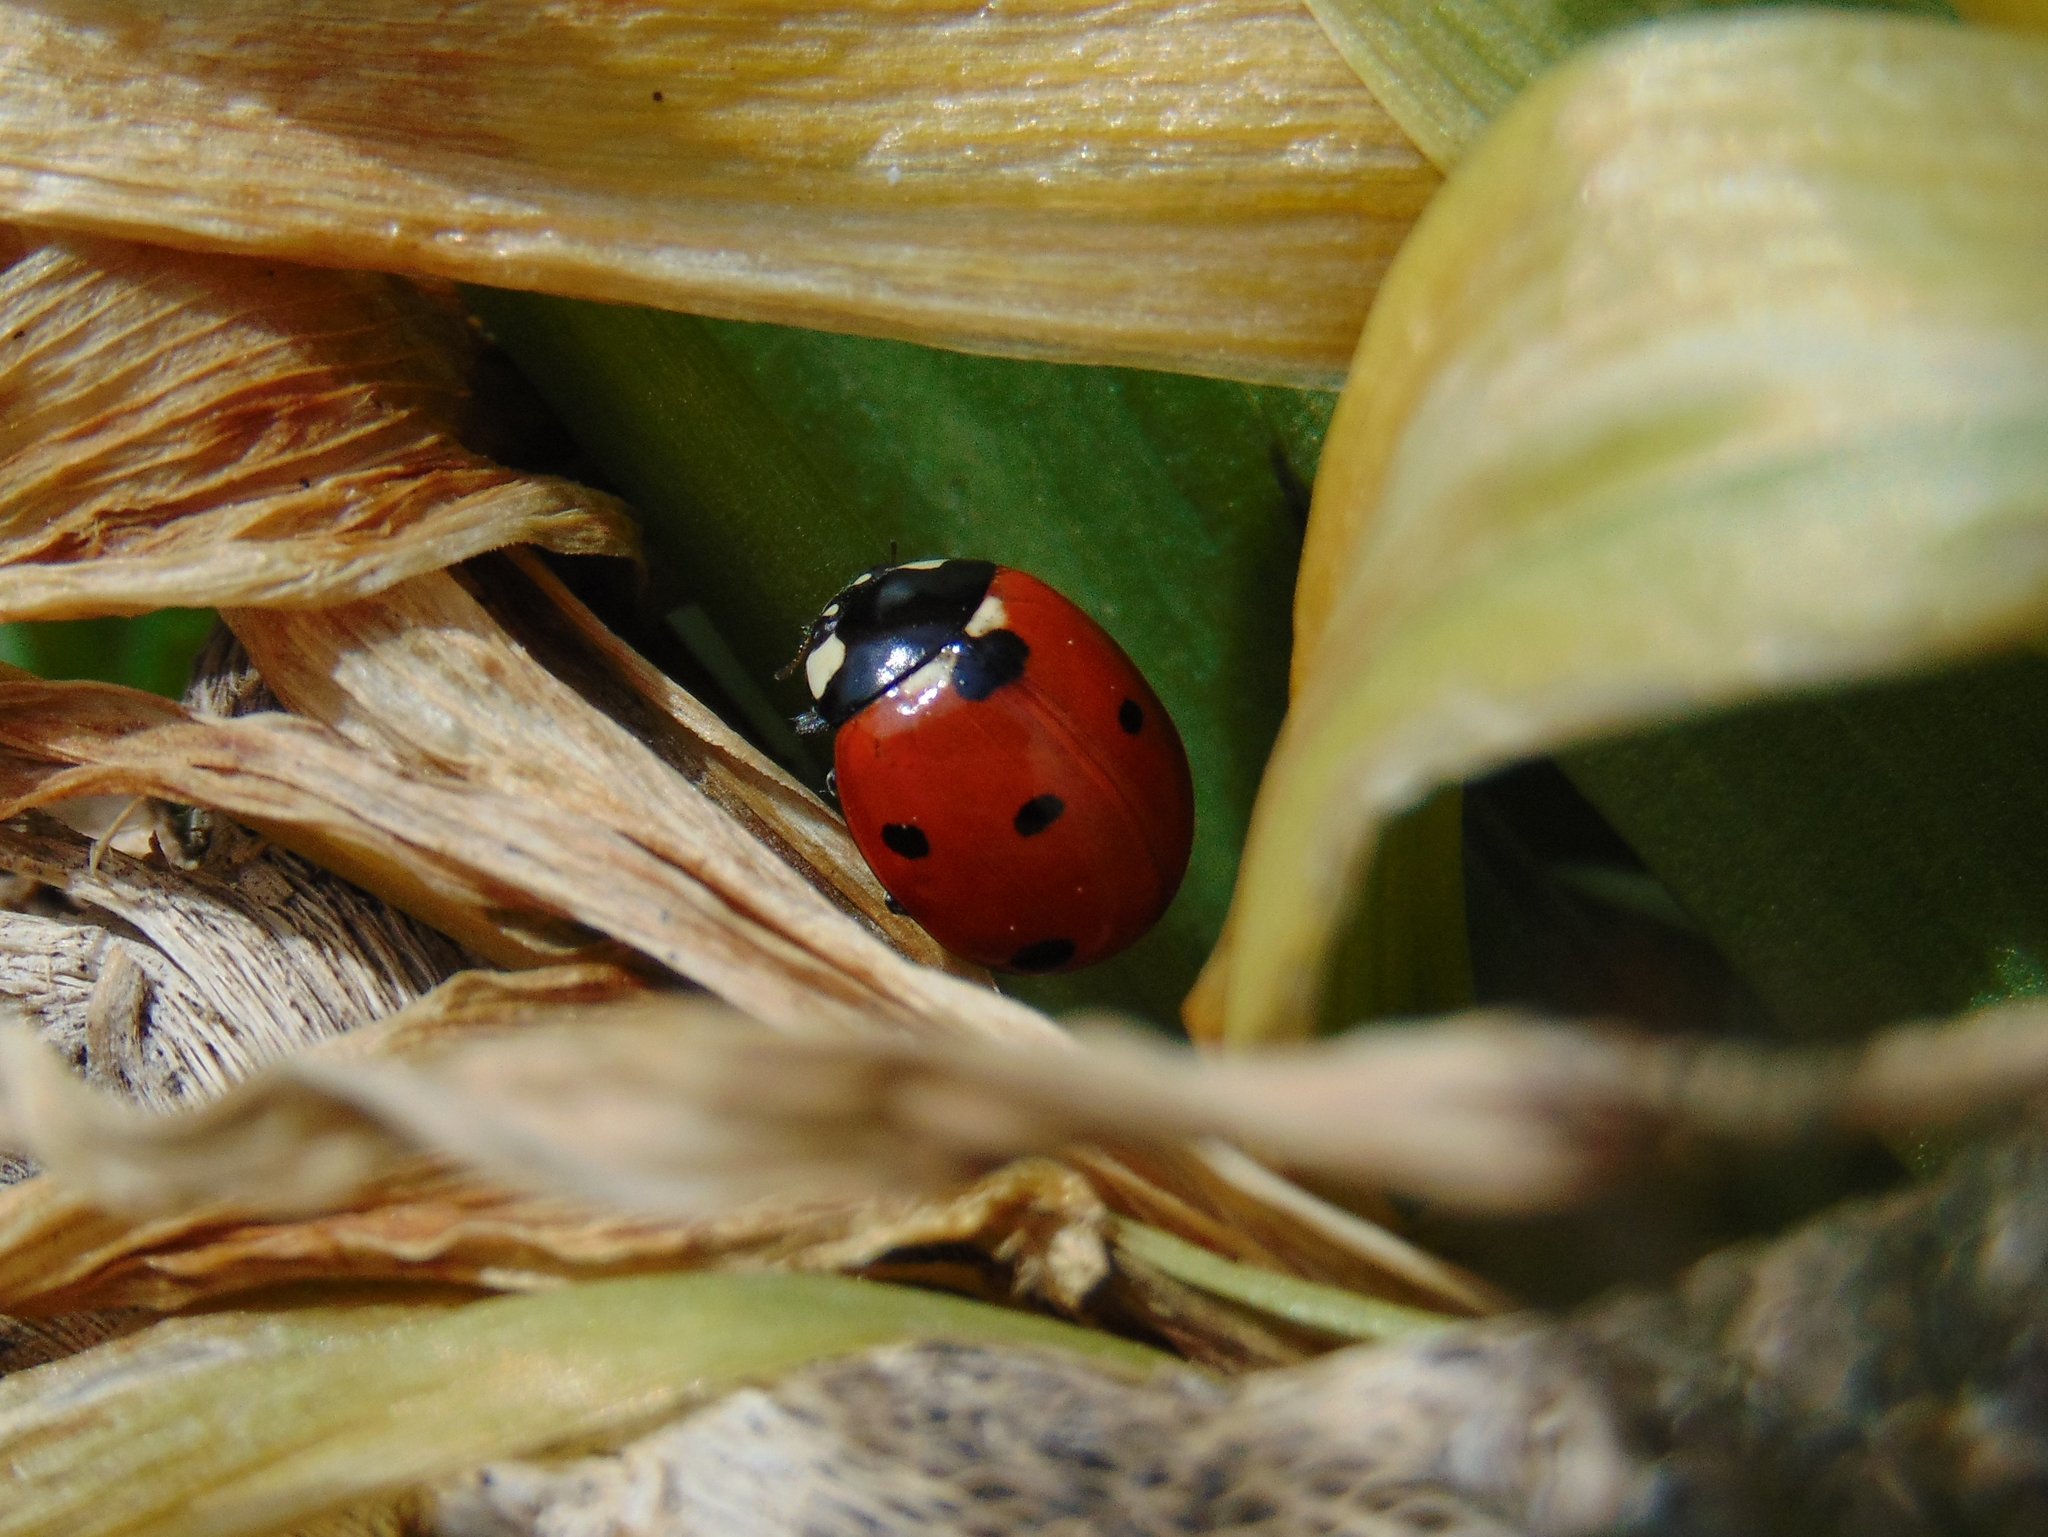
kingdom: Animalia
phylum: Arthropoda
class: Insecta
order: Coleoptera
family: Coccinellidae
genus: Coccinella
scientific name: Coccinella septempunctata
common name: Sevenspotted lady beetle
